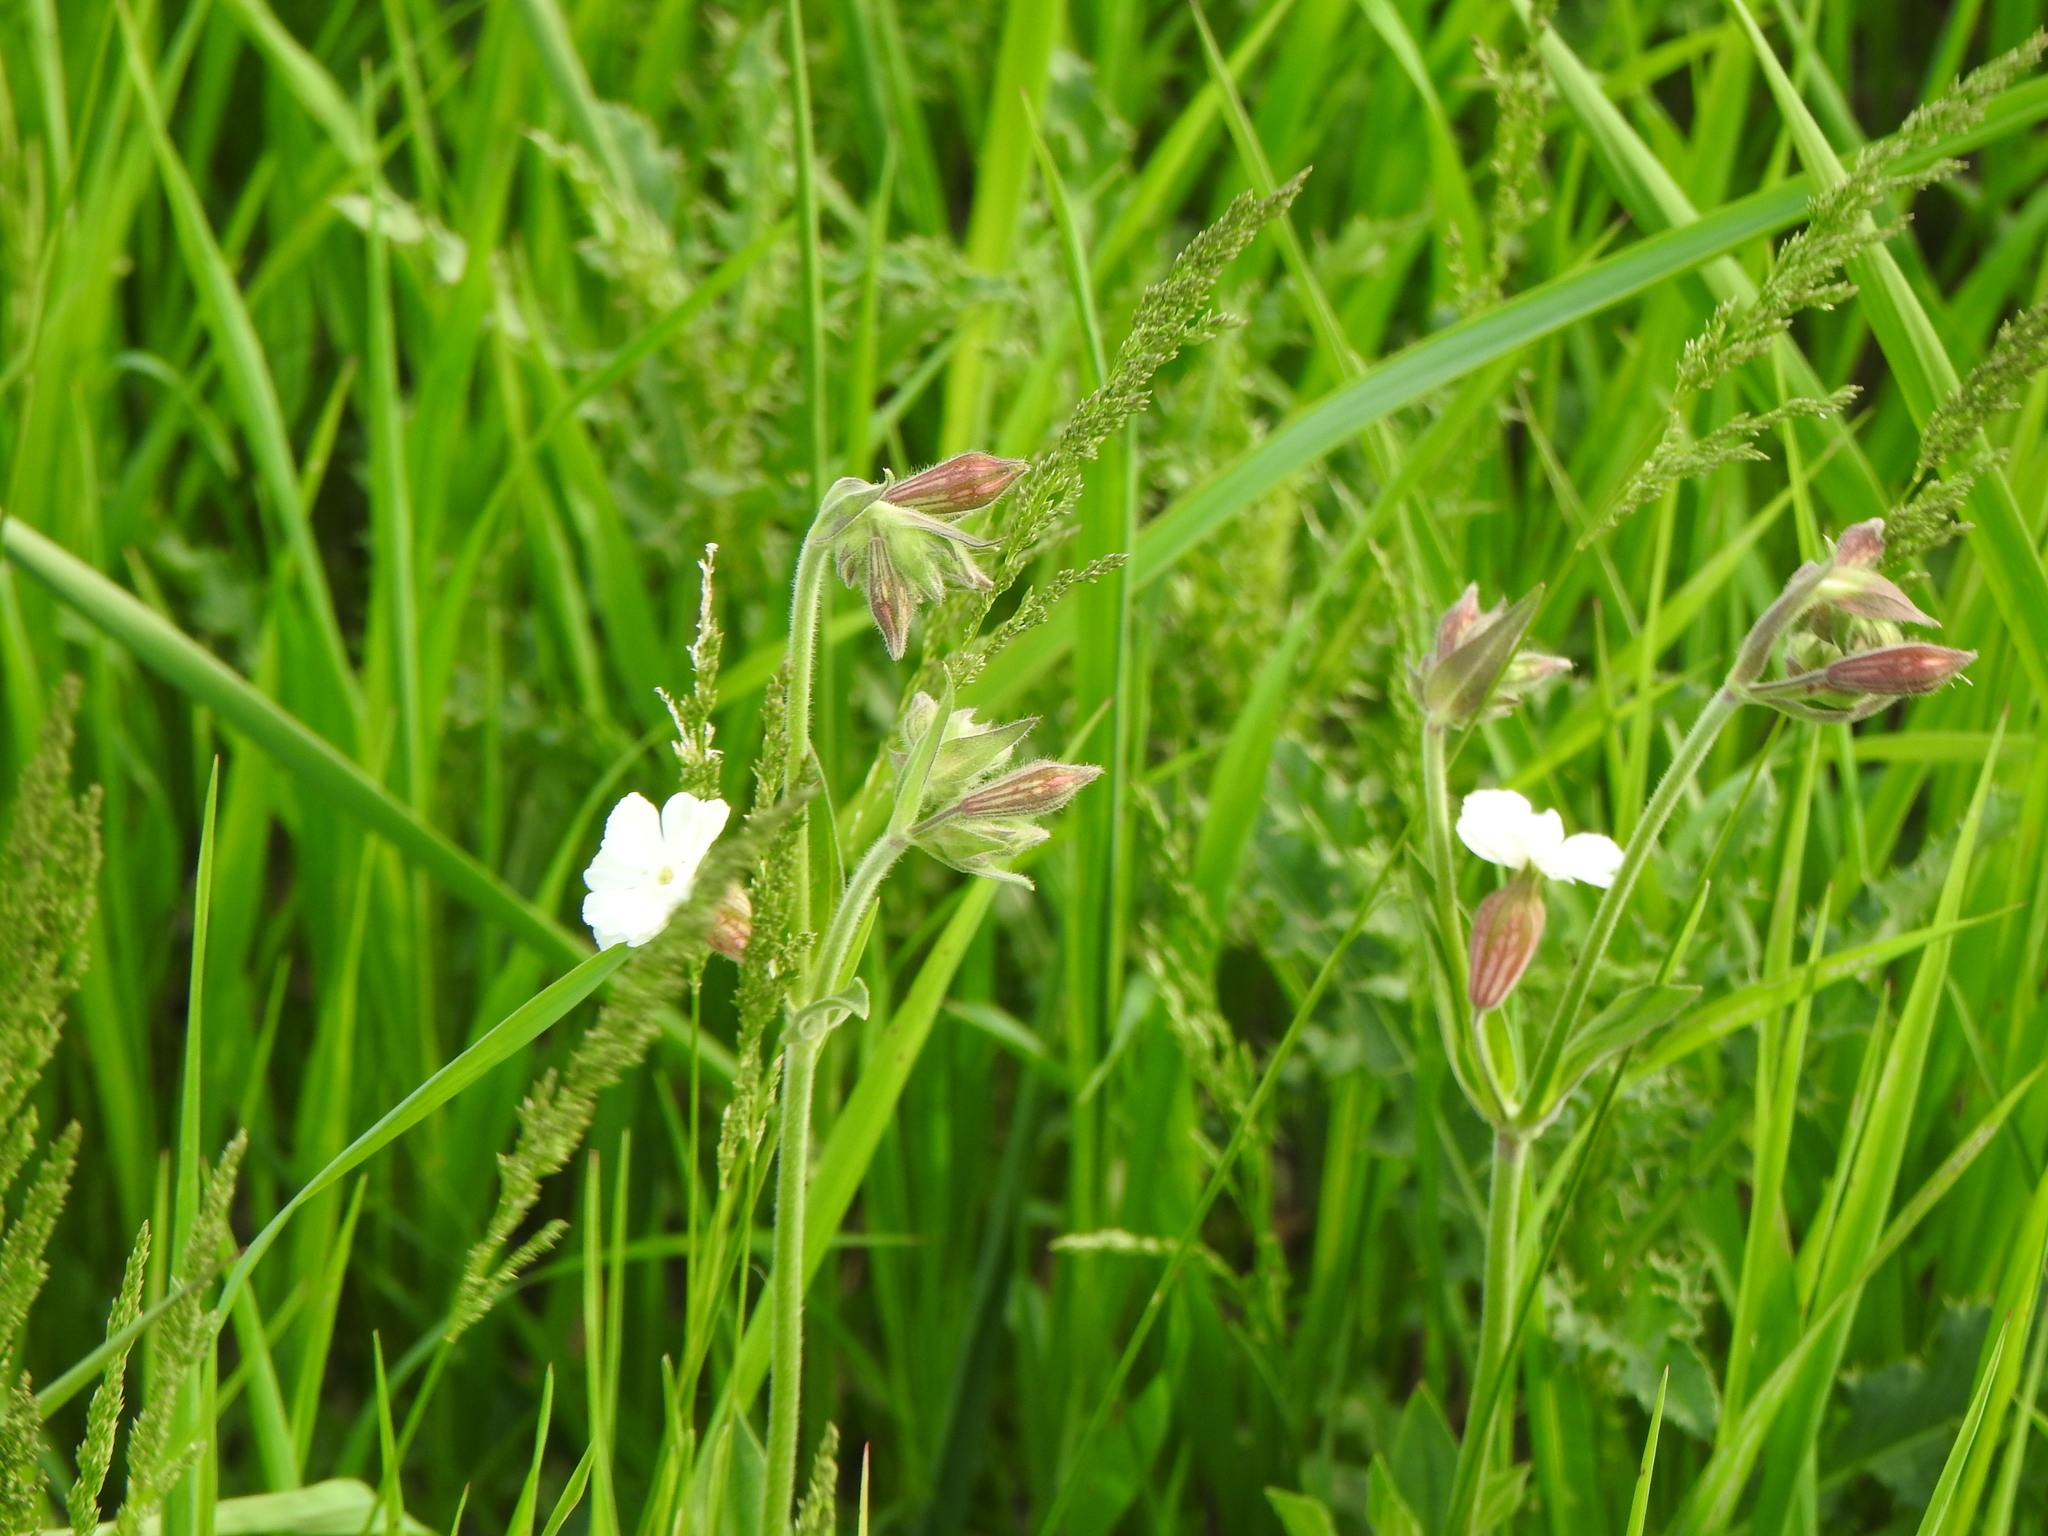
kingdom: Plantae
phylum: Tracheophyta
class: Magnoliopsida
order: Caryophyllales
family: Caryophyllaceae
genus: Silene
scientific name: Silene latifolia
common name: White campion
